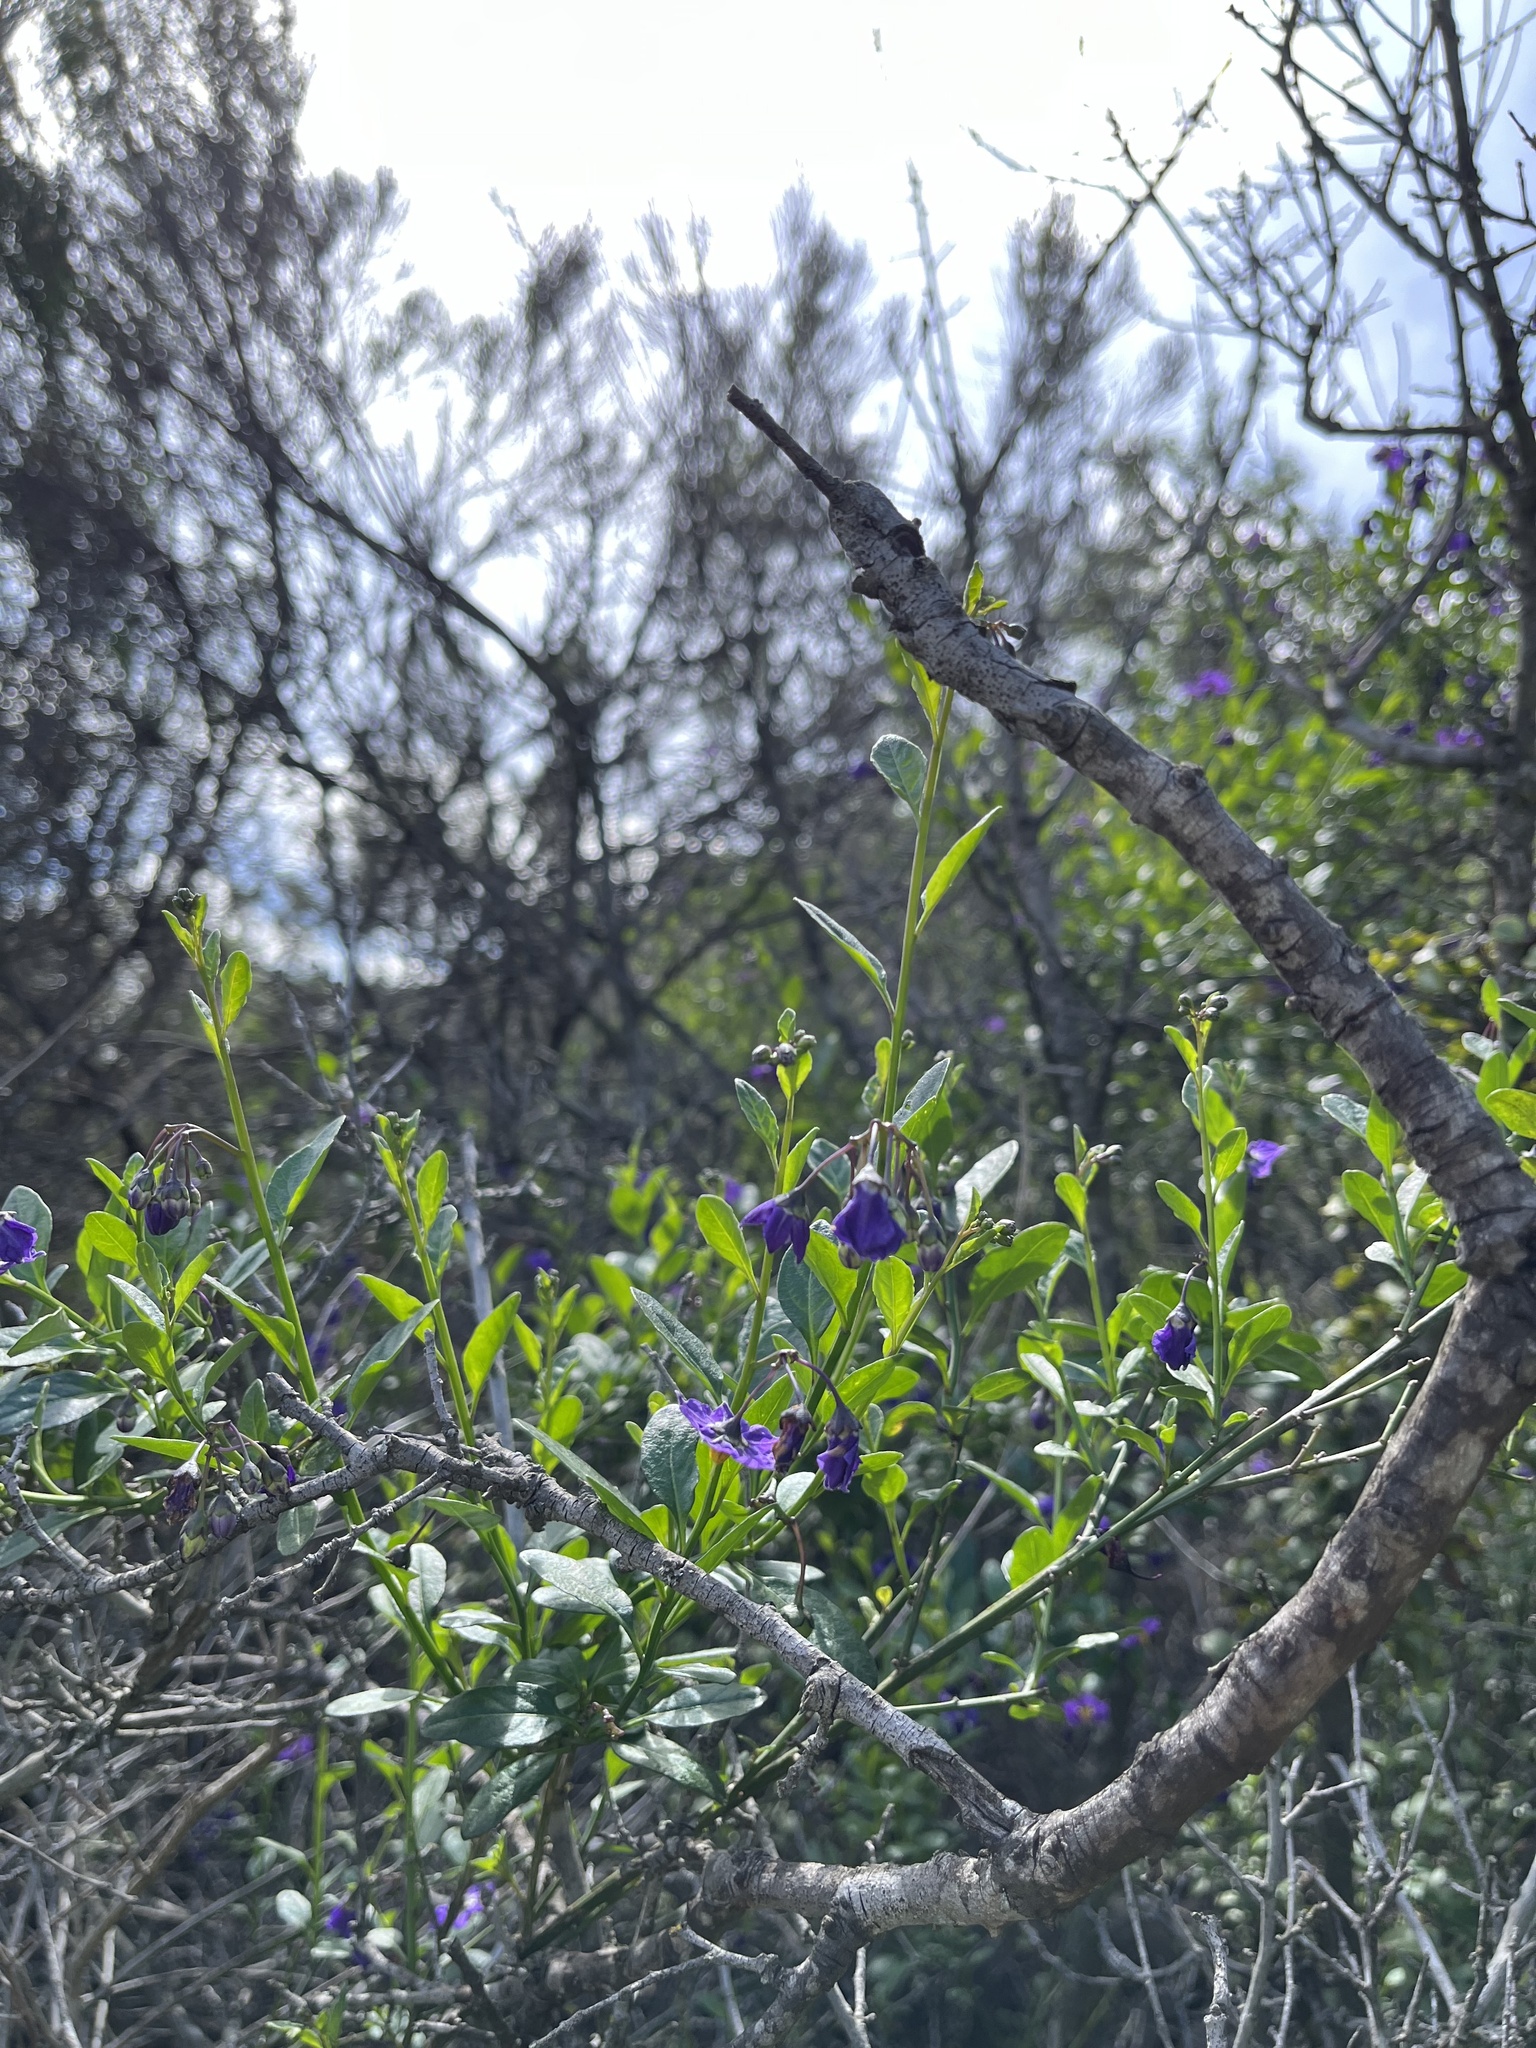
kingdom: Plantae
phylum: Tracheophyta
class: Magnoliopsida
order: Solanales
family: Solanaceae
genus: Solanum
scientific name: Solanum umbelliferum
